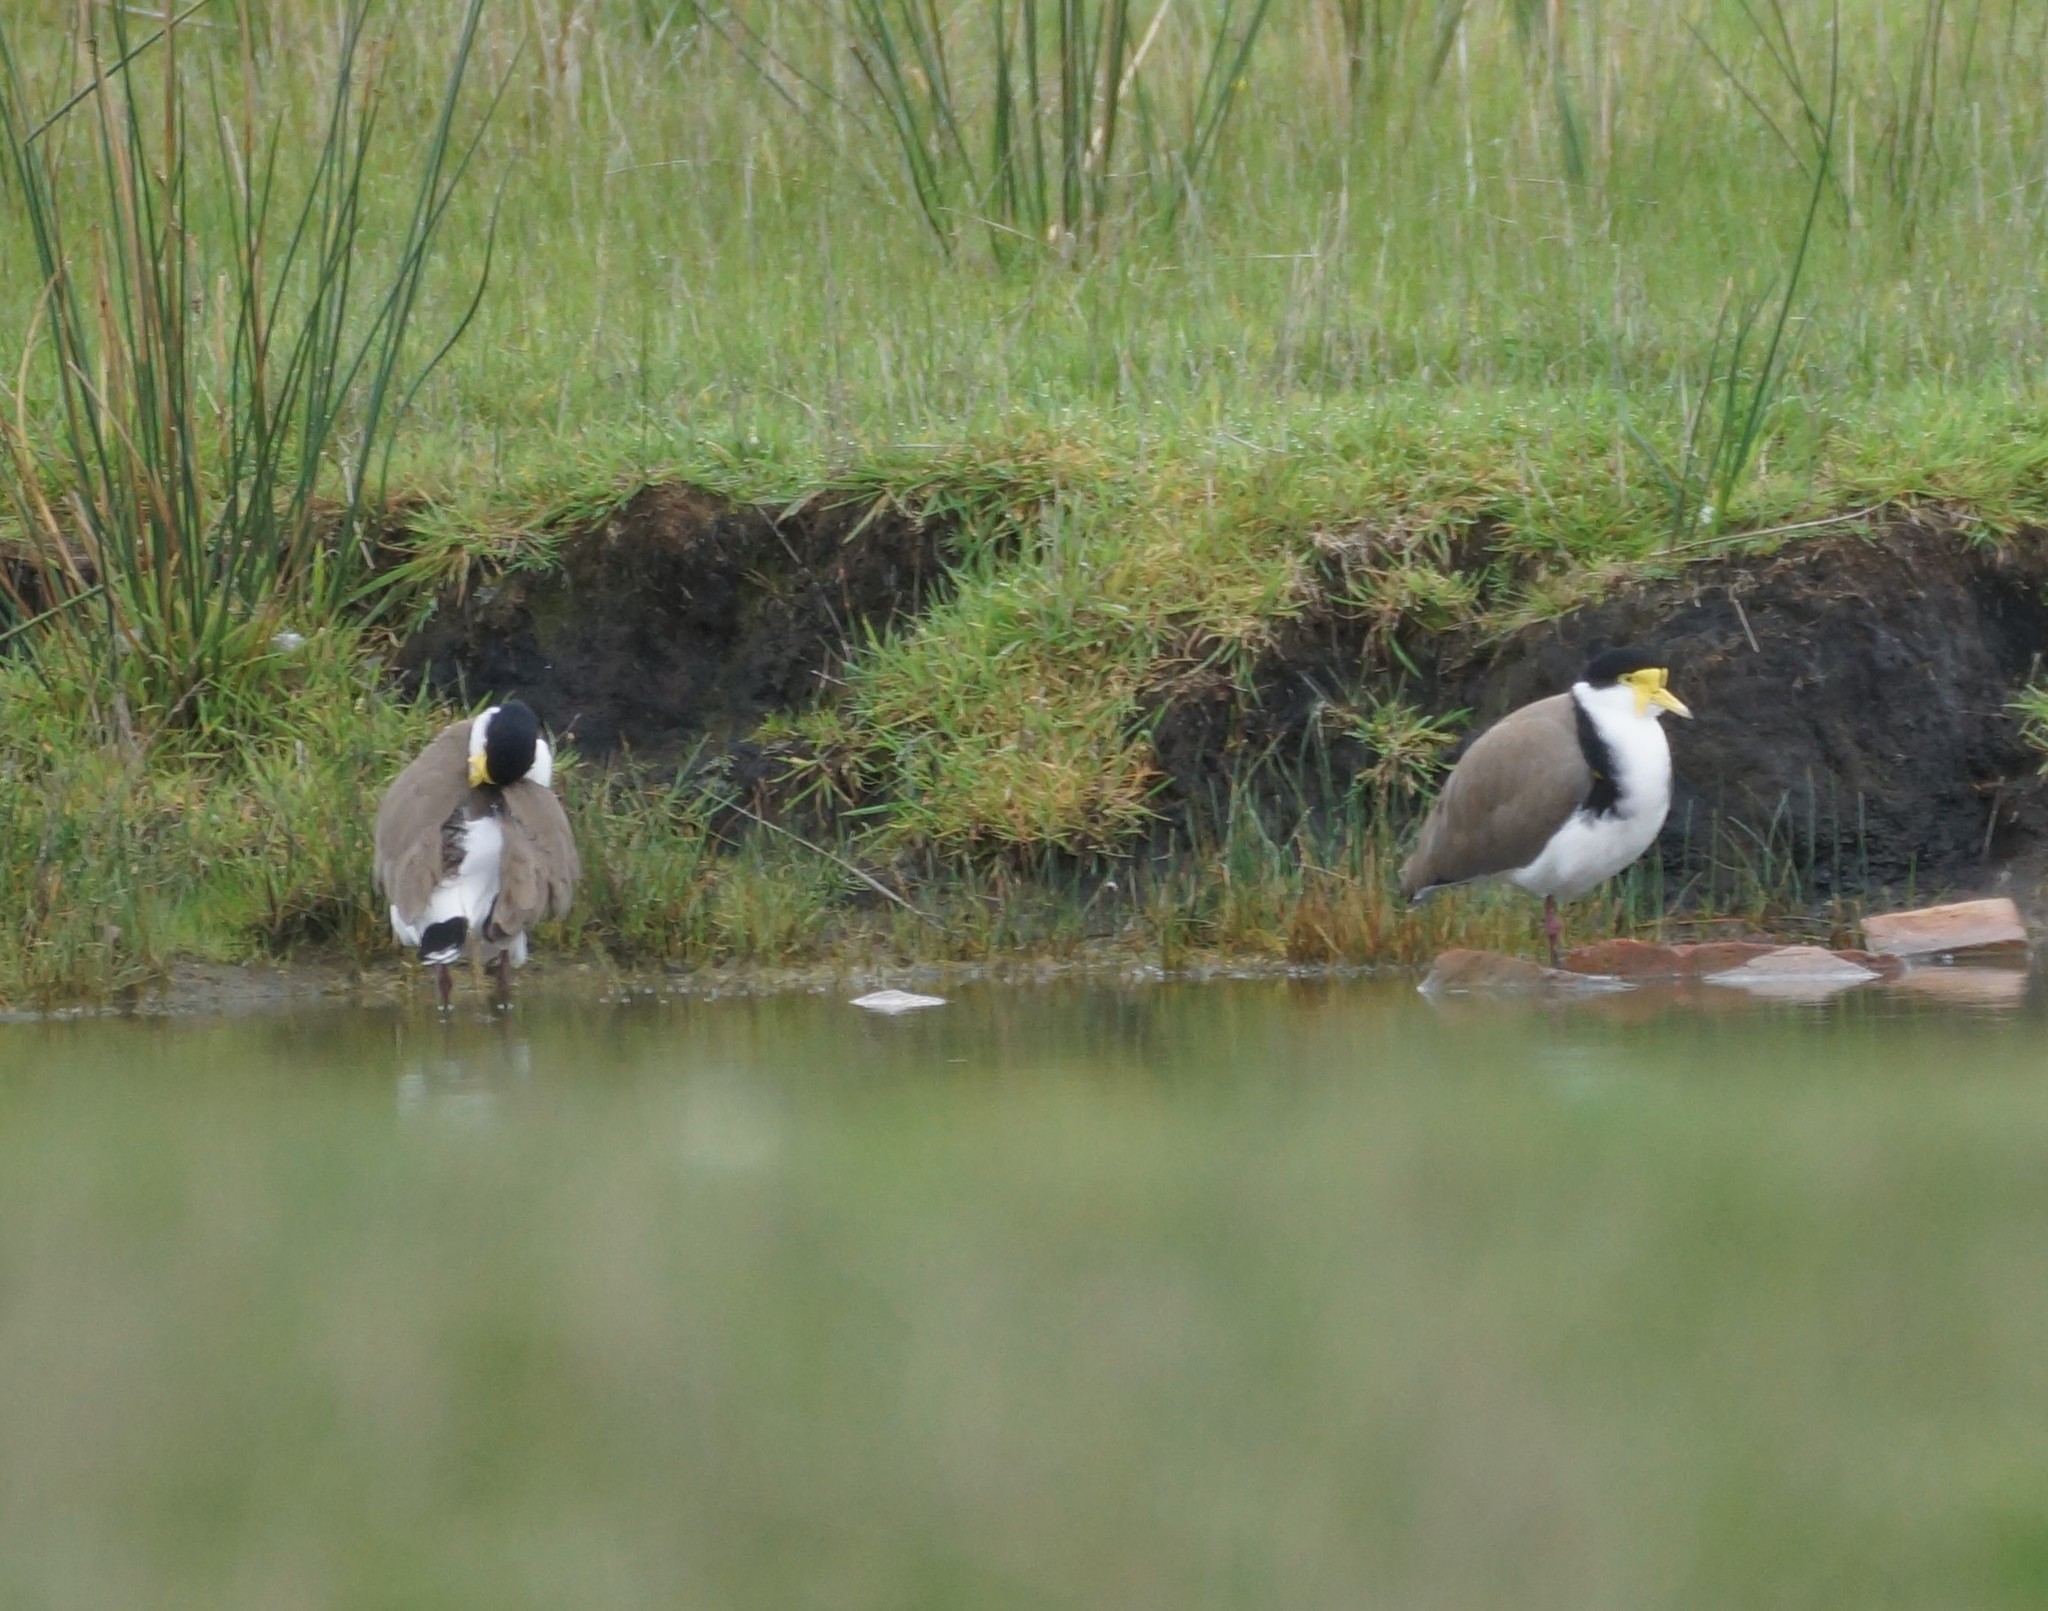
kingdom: Animalia
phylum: Chordata
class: Aves
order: Charadriiformes
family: Charadriidae
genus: Vanellus
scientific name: Vanellus miles
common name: Masked lapwing
